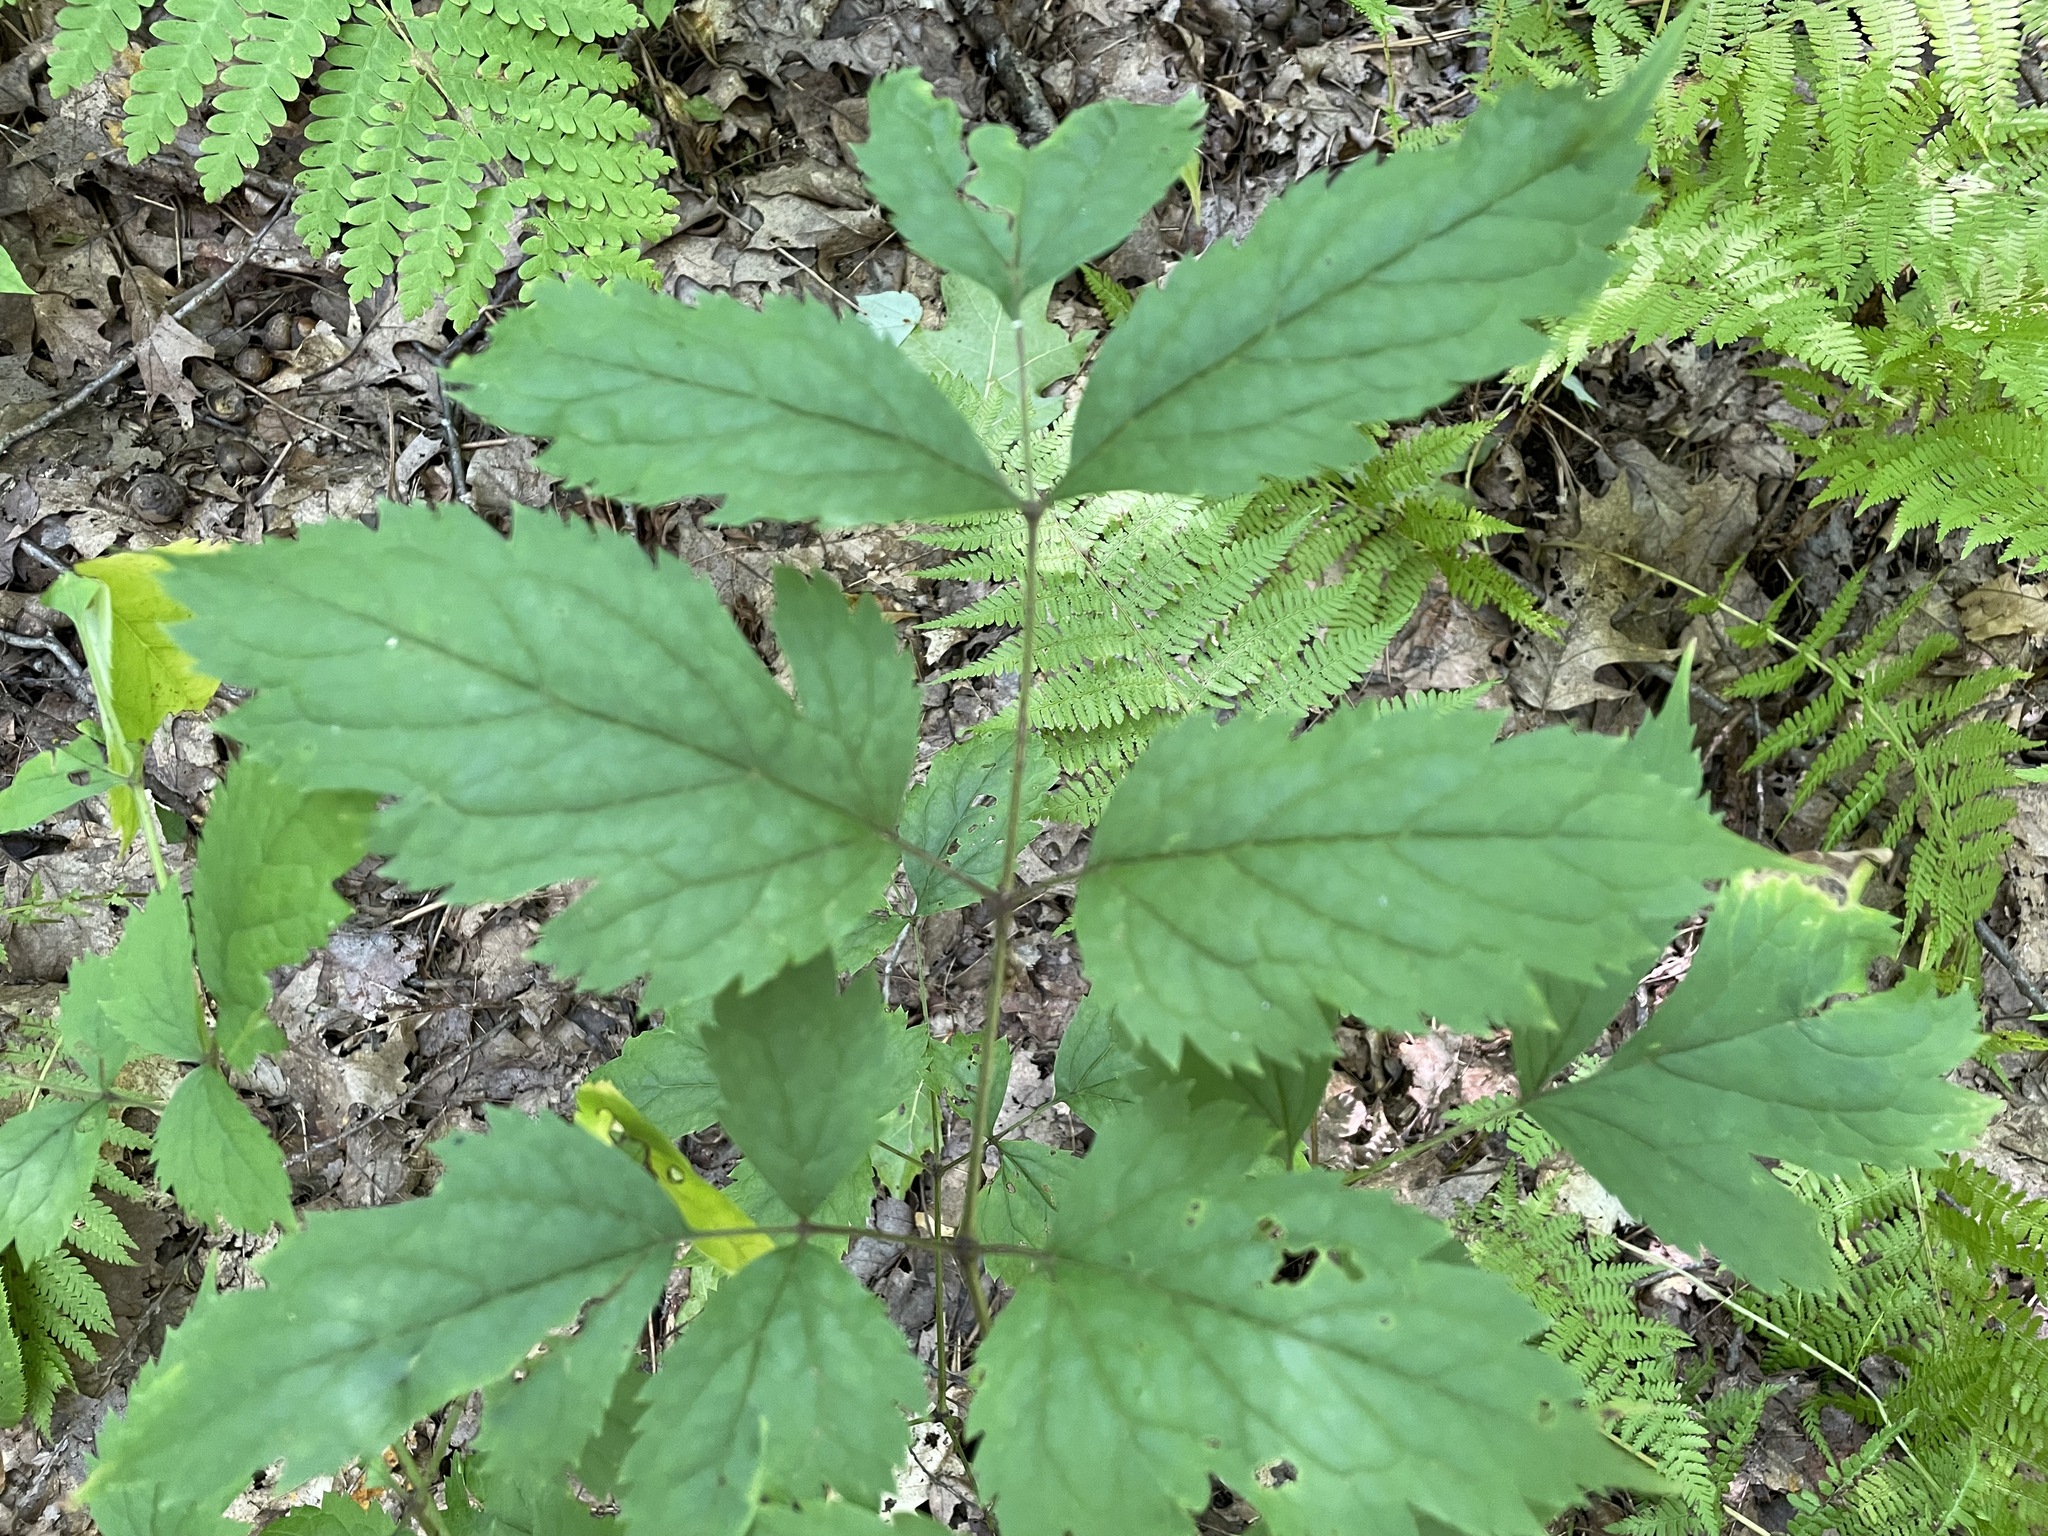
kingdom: Plantae
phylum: Tracheophyta
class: Magnoliopsida
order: Ranunculales
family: Ranunculaceae
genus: Actaea
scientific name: Actaea racemosa
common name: Black cohosh
